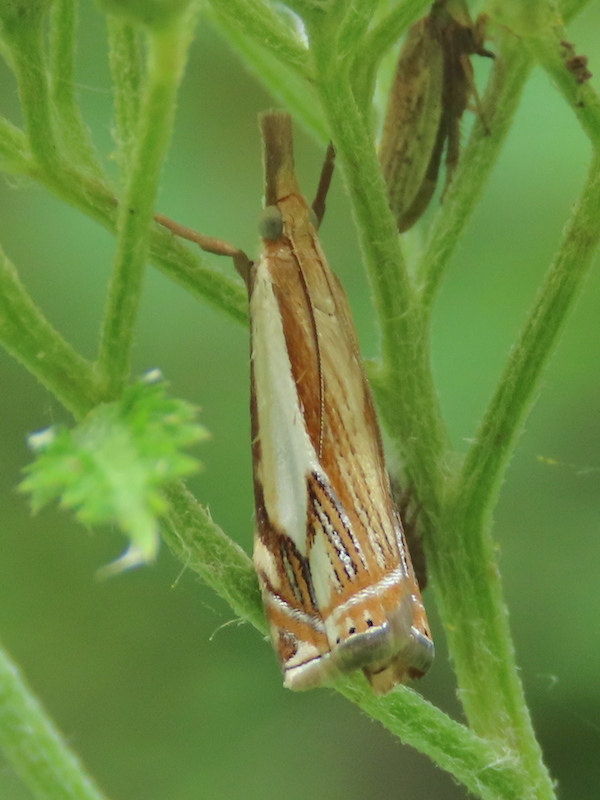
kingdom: Animalia
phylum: Arthropoda
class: Insecta
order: Lepidoptera
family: Crambidae
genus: Crambus
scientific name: Crambus agitatellus
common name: Double-banded grass-veneer
